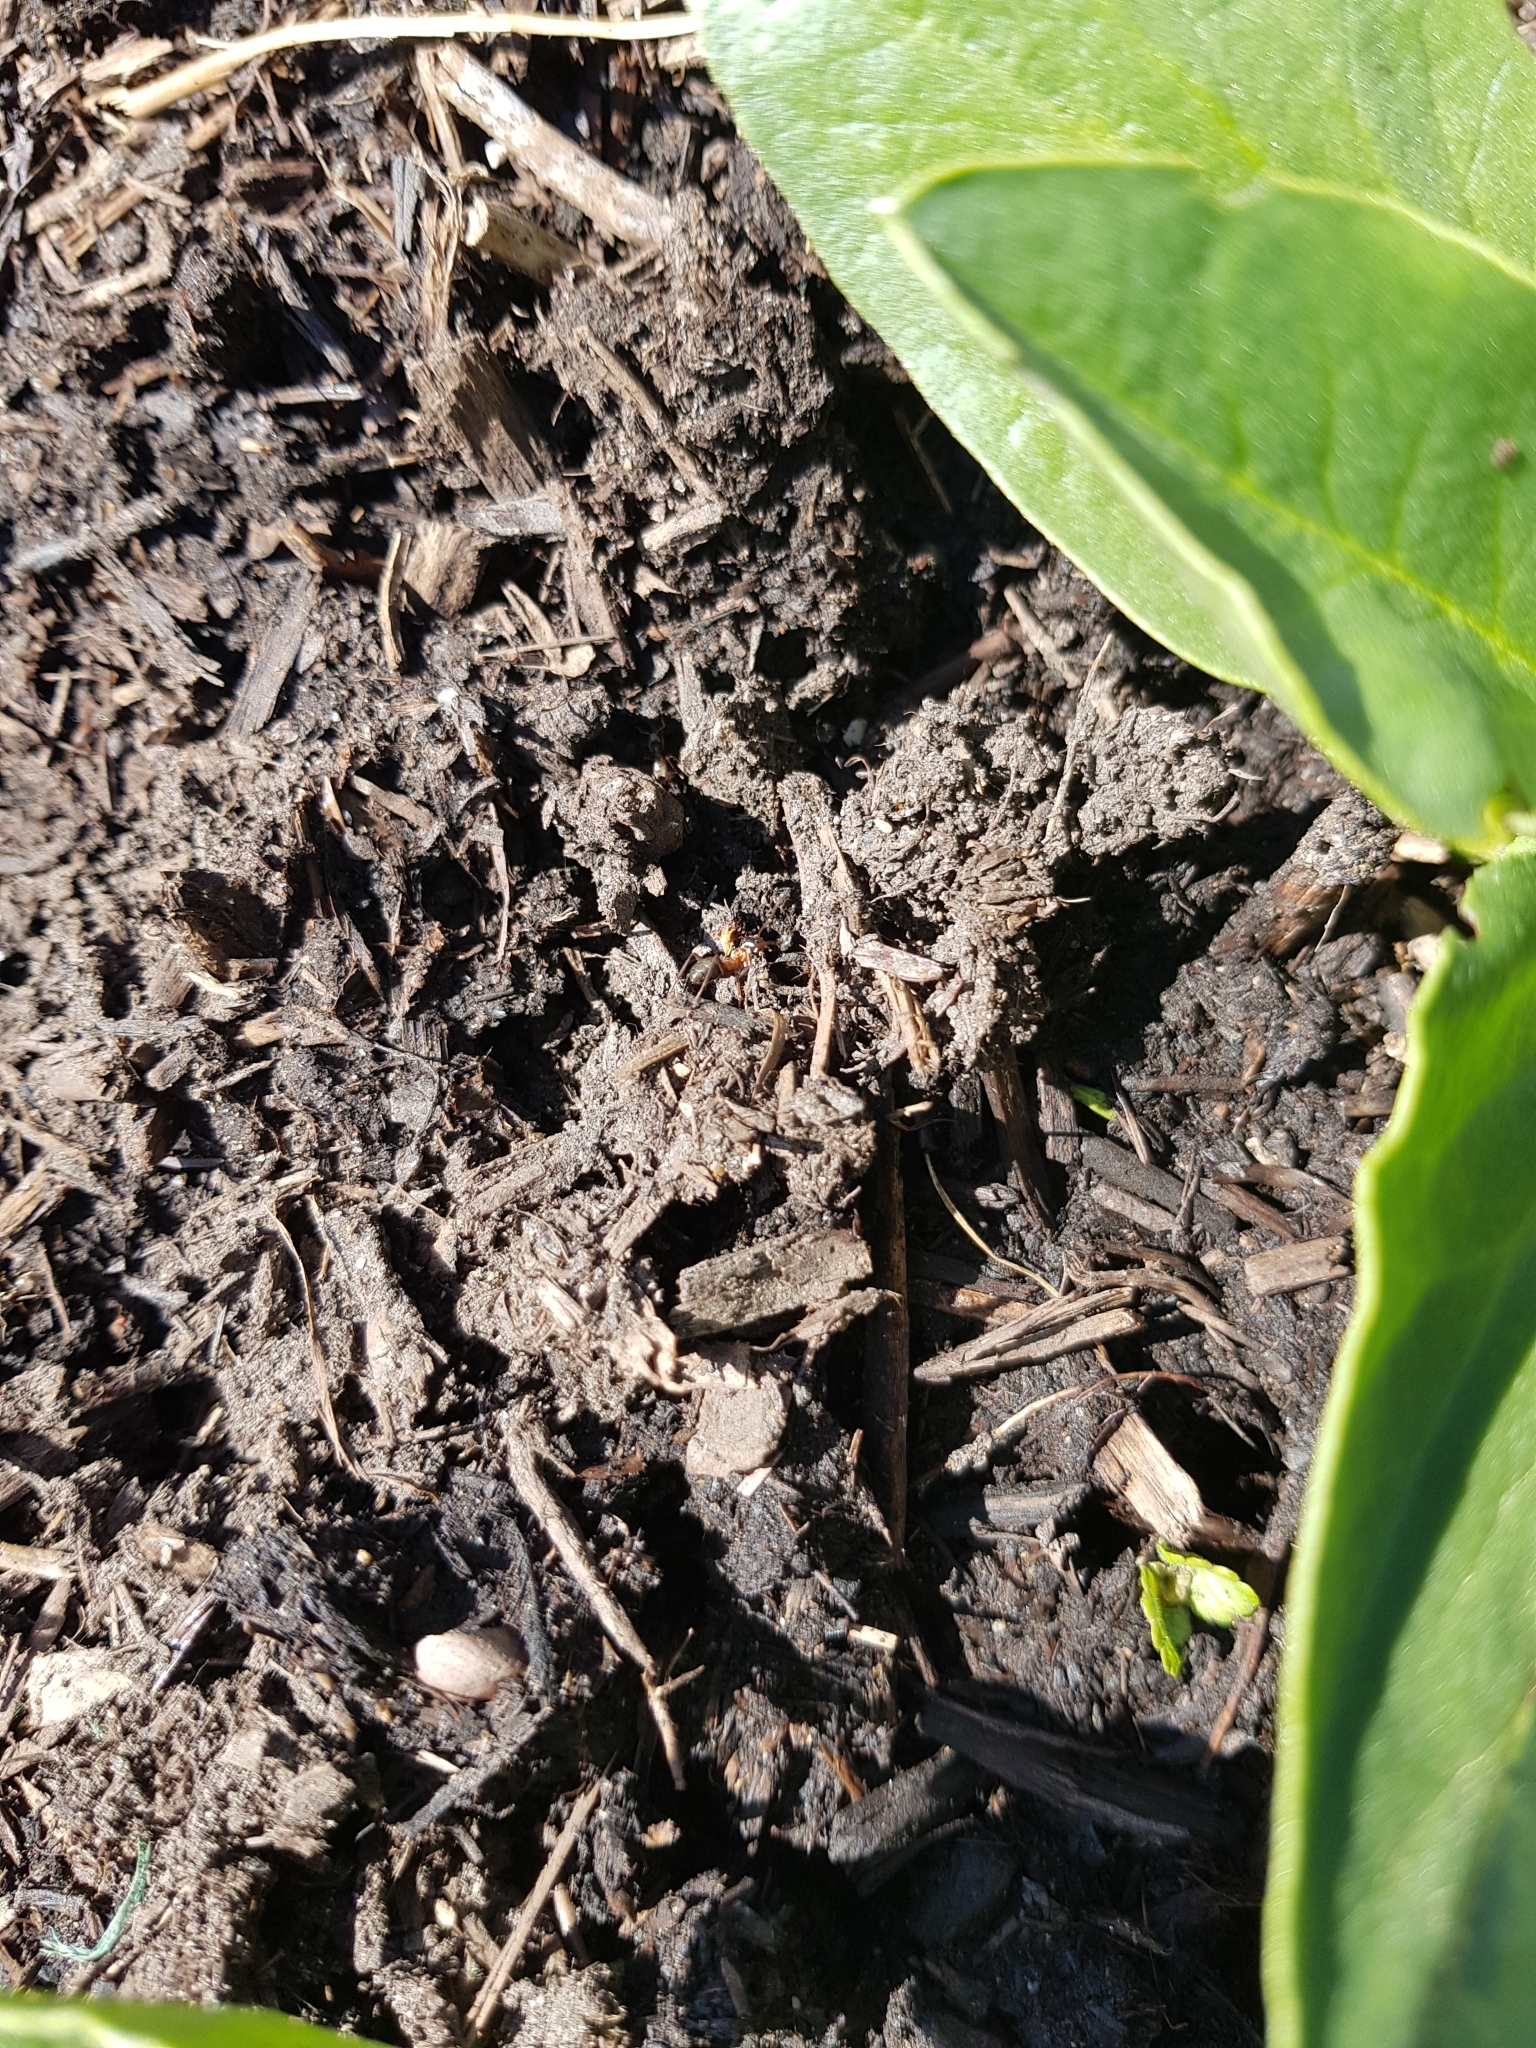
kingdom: Animalia
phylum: Arthropoda
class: Insecta
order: Hymenoptera
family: Formicidae
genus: Formica
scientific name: Formica rufa
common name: Red wood ant
